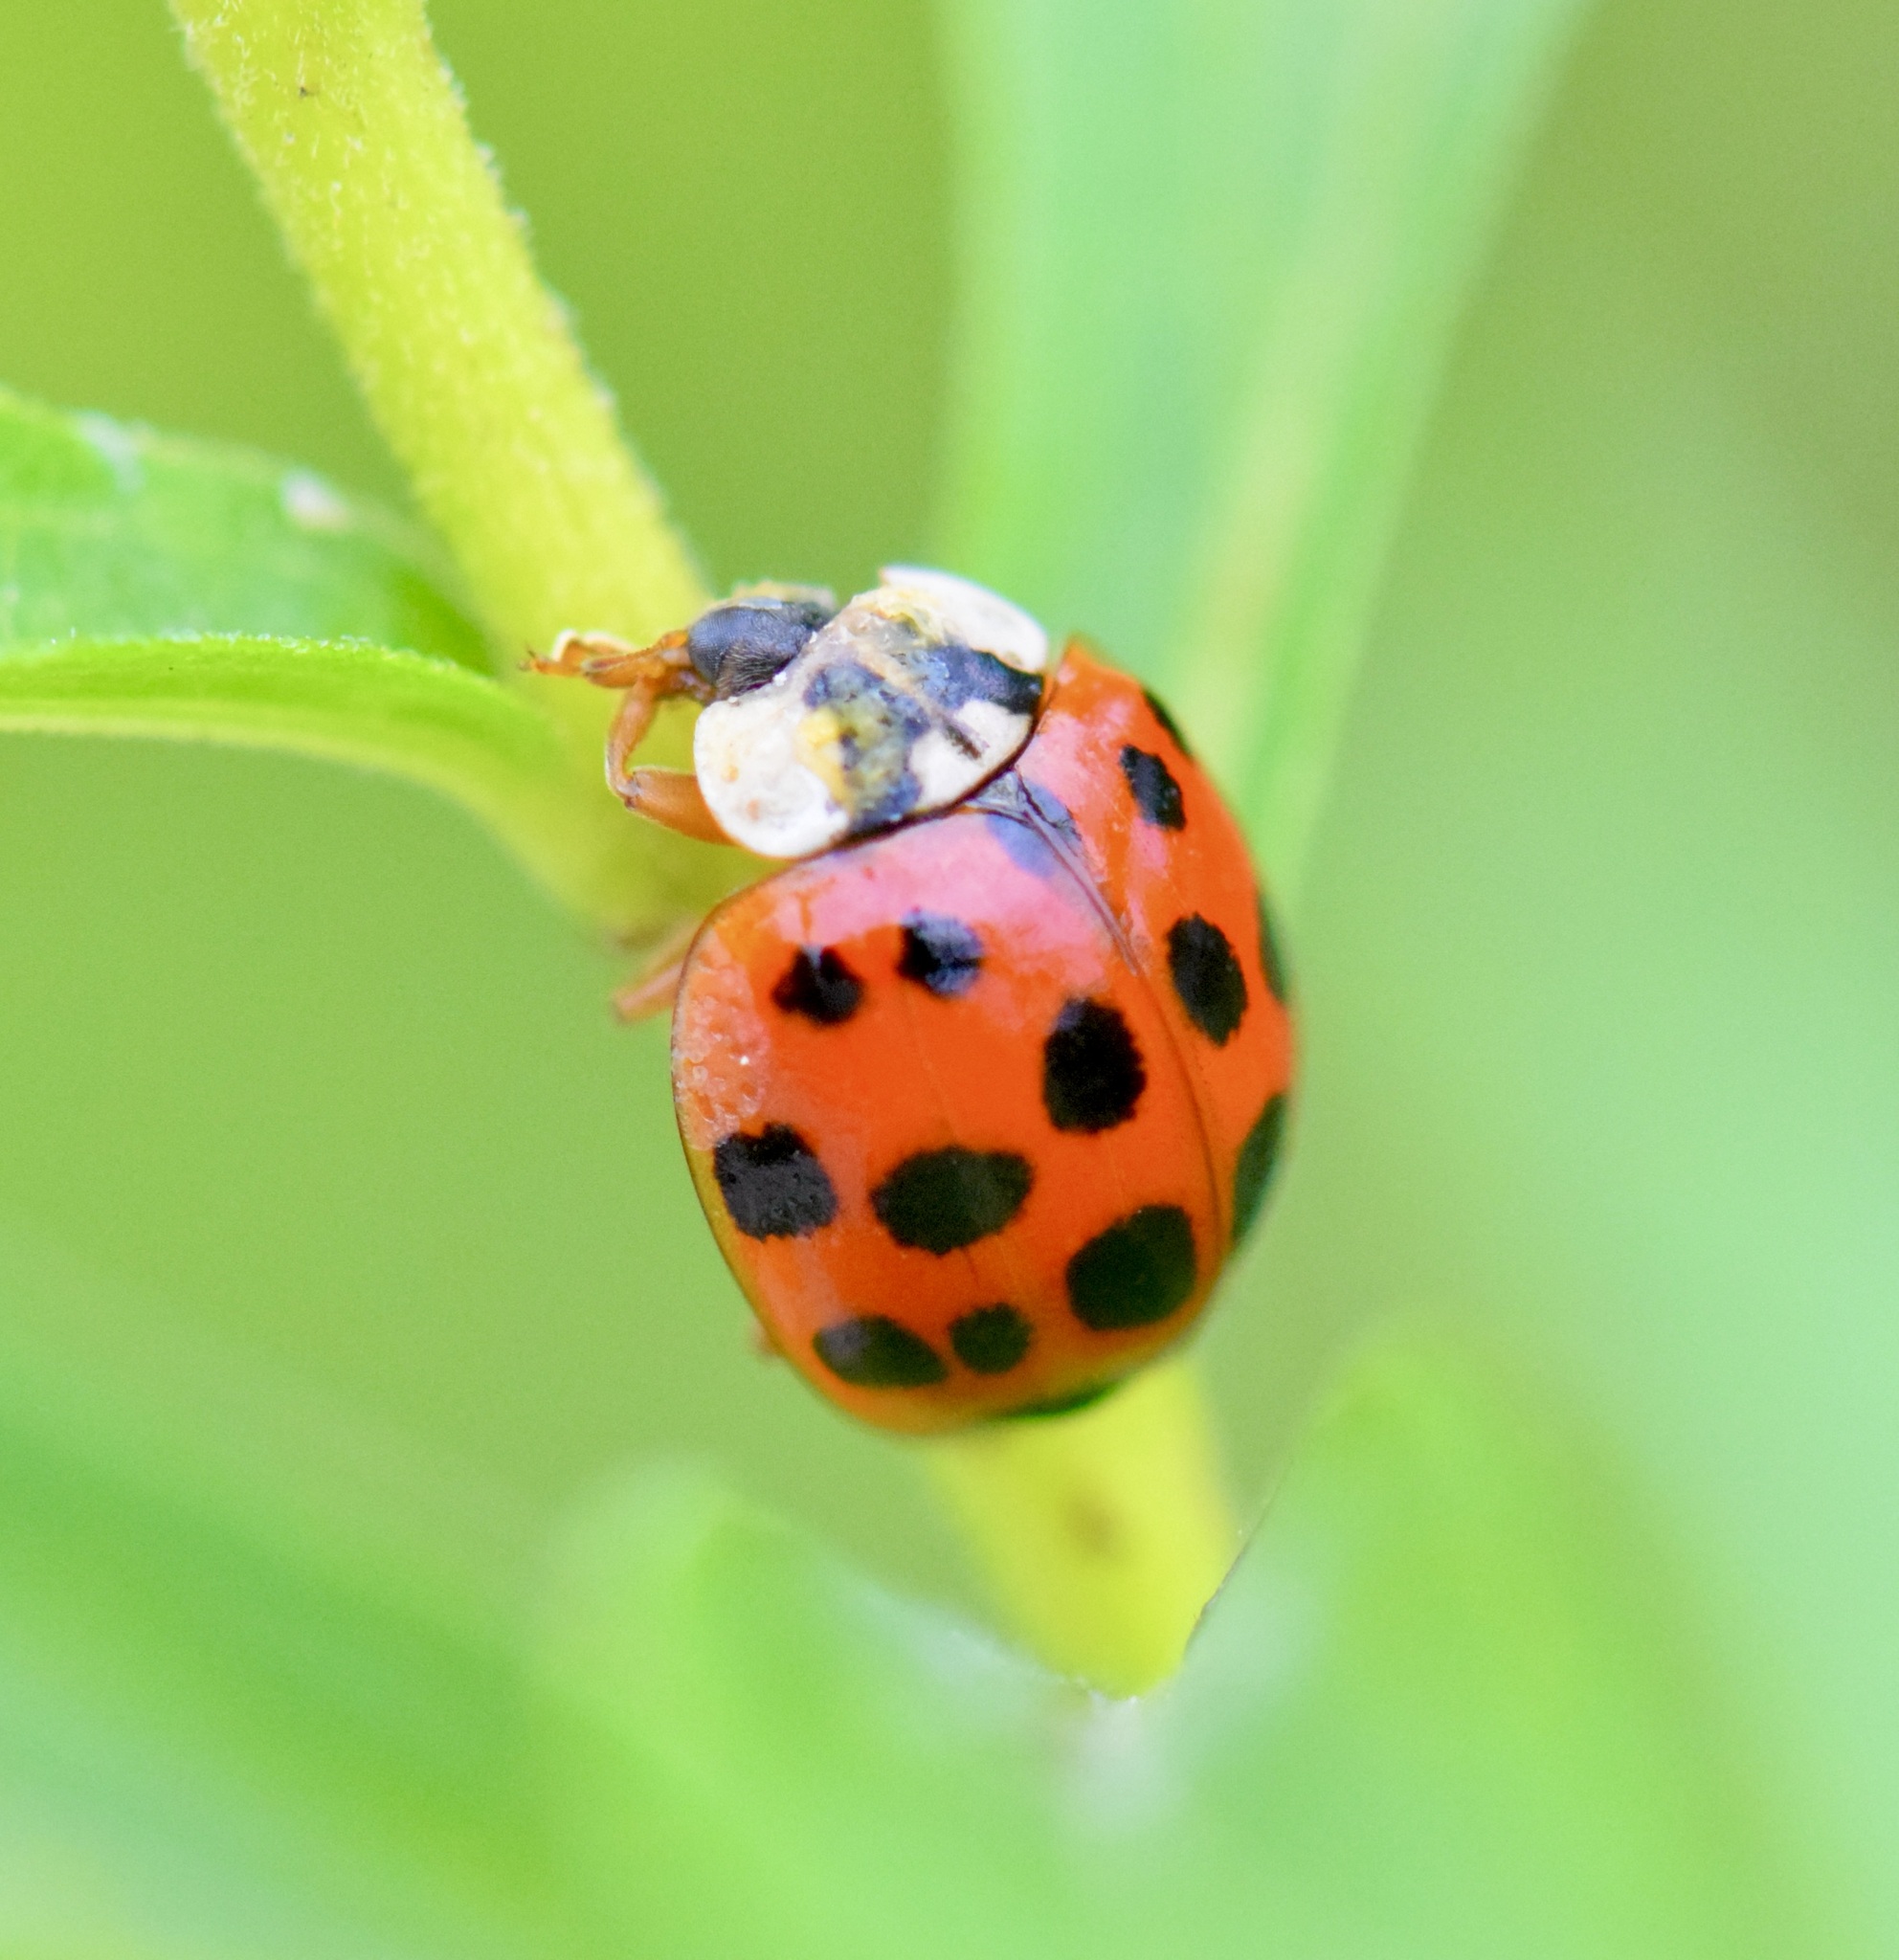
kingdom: Animalia
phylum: Arthropoda
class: Insecta
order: Coleoptera
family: Coccinellidae
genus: Harmonia
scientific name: Harmonia axyridis
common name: Harlequin ladybird
